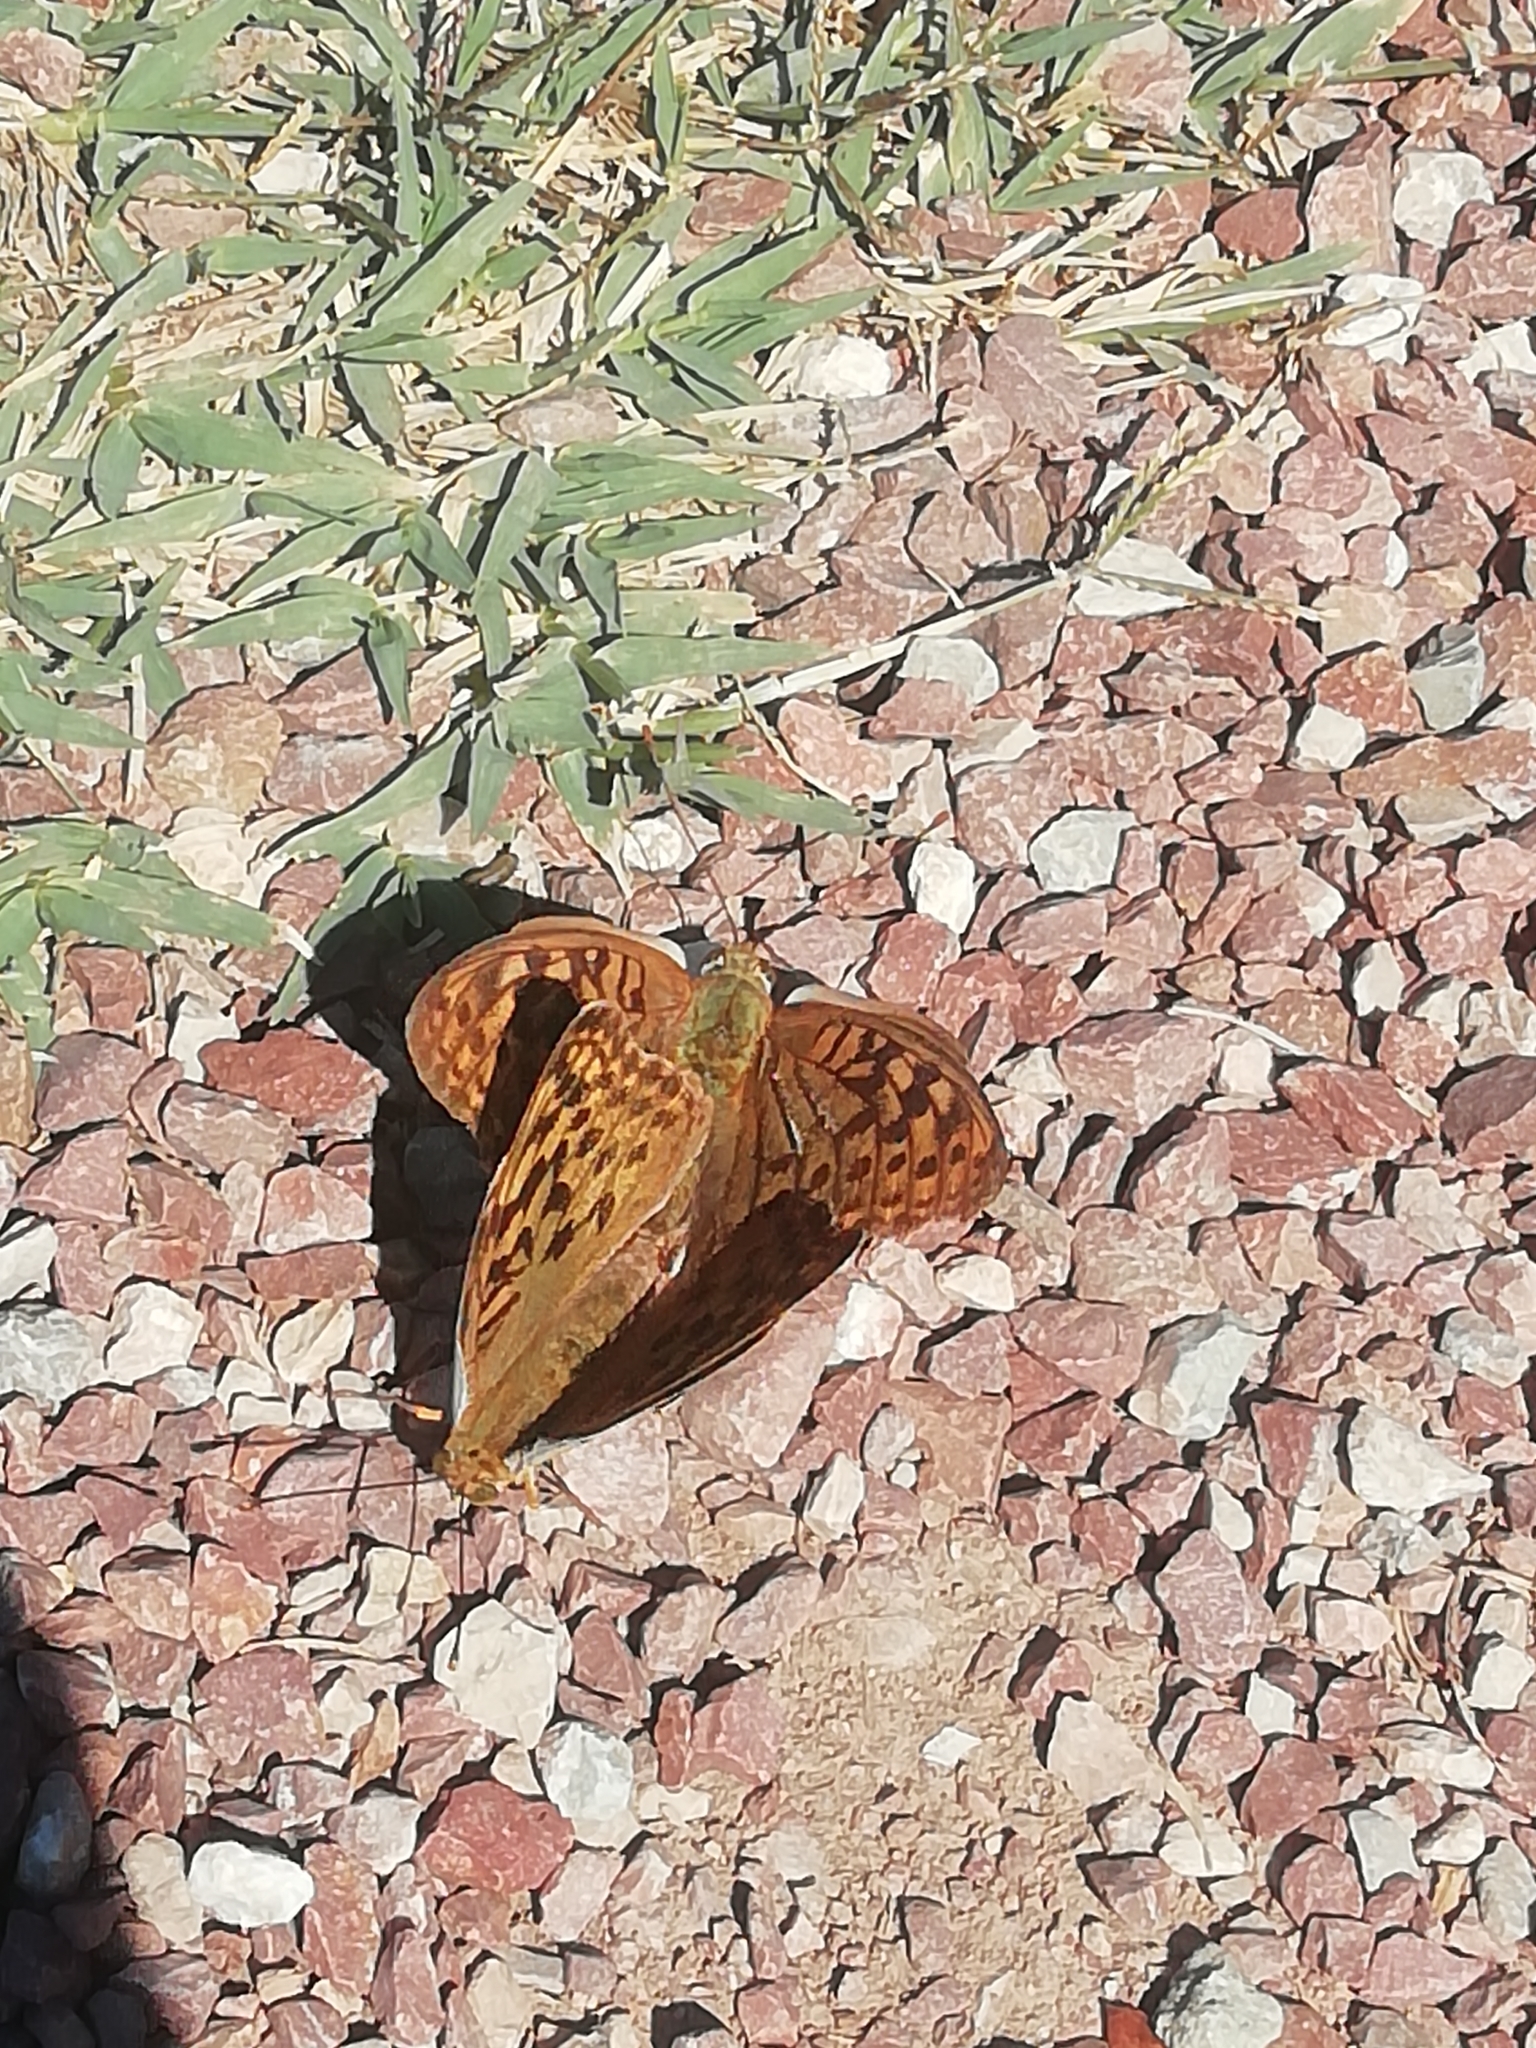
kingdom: Animalia
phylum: Arthropoda
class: Insecta
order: Lepidoptera
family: Nymphalidae
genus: Damora
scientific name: Damora pandora
